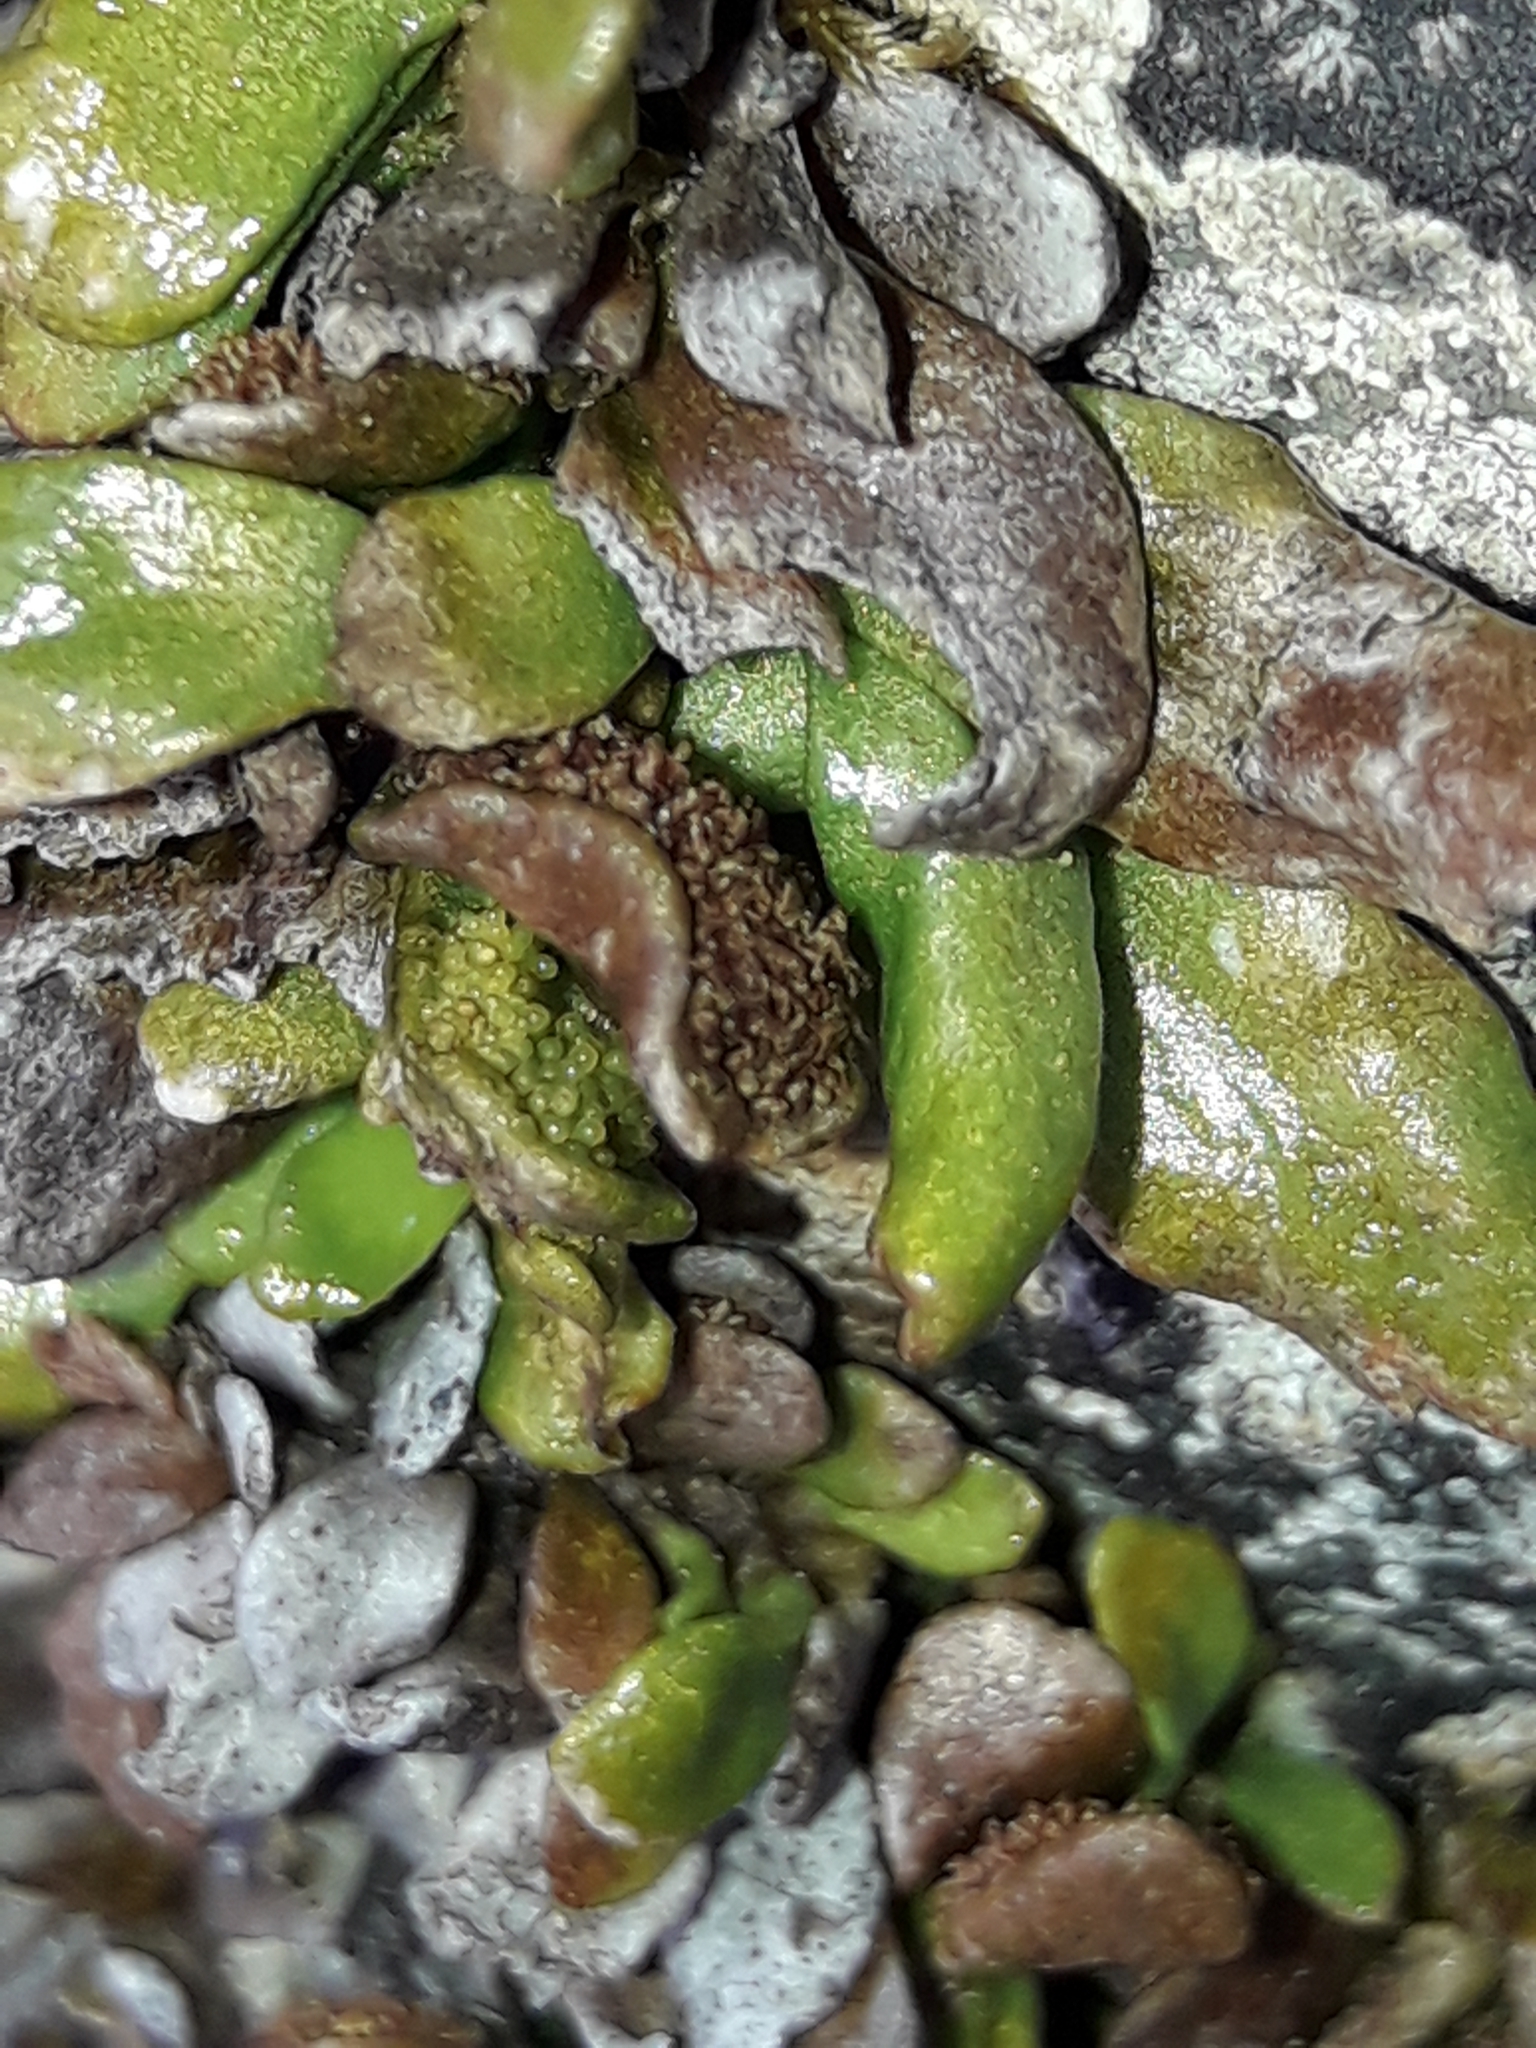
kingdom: Plantae
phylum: Tracheophyta
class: Polypodiopsida
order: Polypodiales
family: Polypodiaceae
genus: Notogrammitis
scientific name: Notogrammitis crassior
